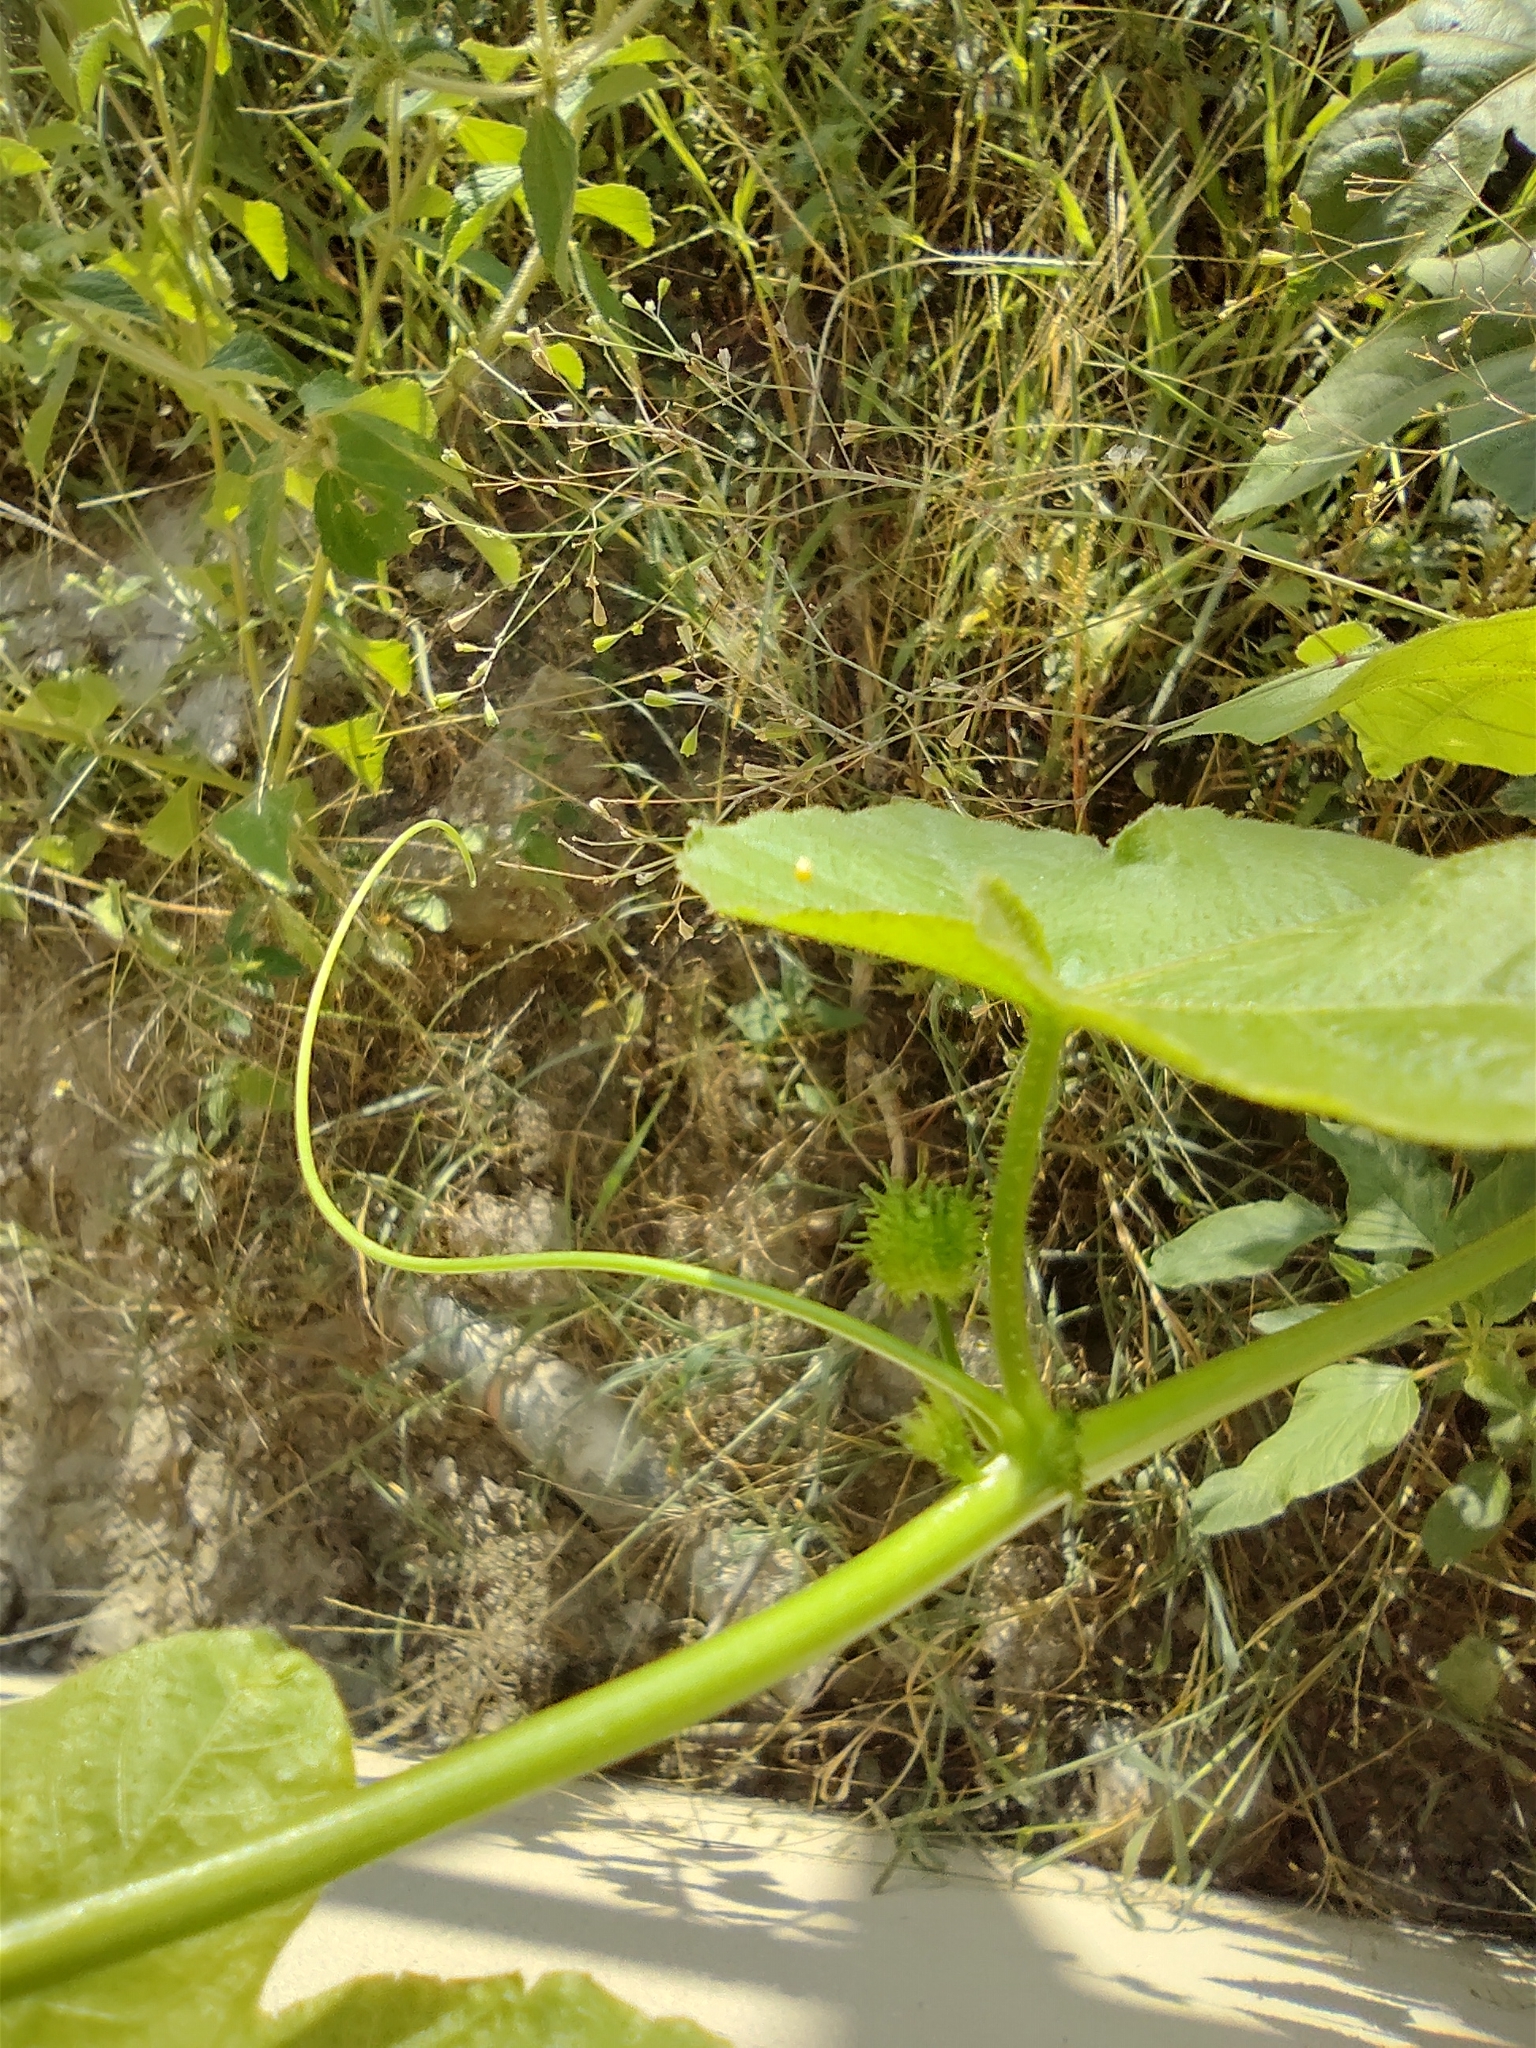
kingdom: Plantae
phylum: Tracheophyta
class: Magnoliopsida
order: Malpighiales
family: Passifloraceae
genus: Passiflora
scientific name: Passiflora foetida
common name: Fetid passionflower
